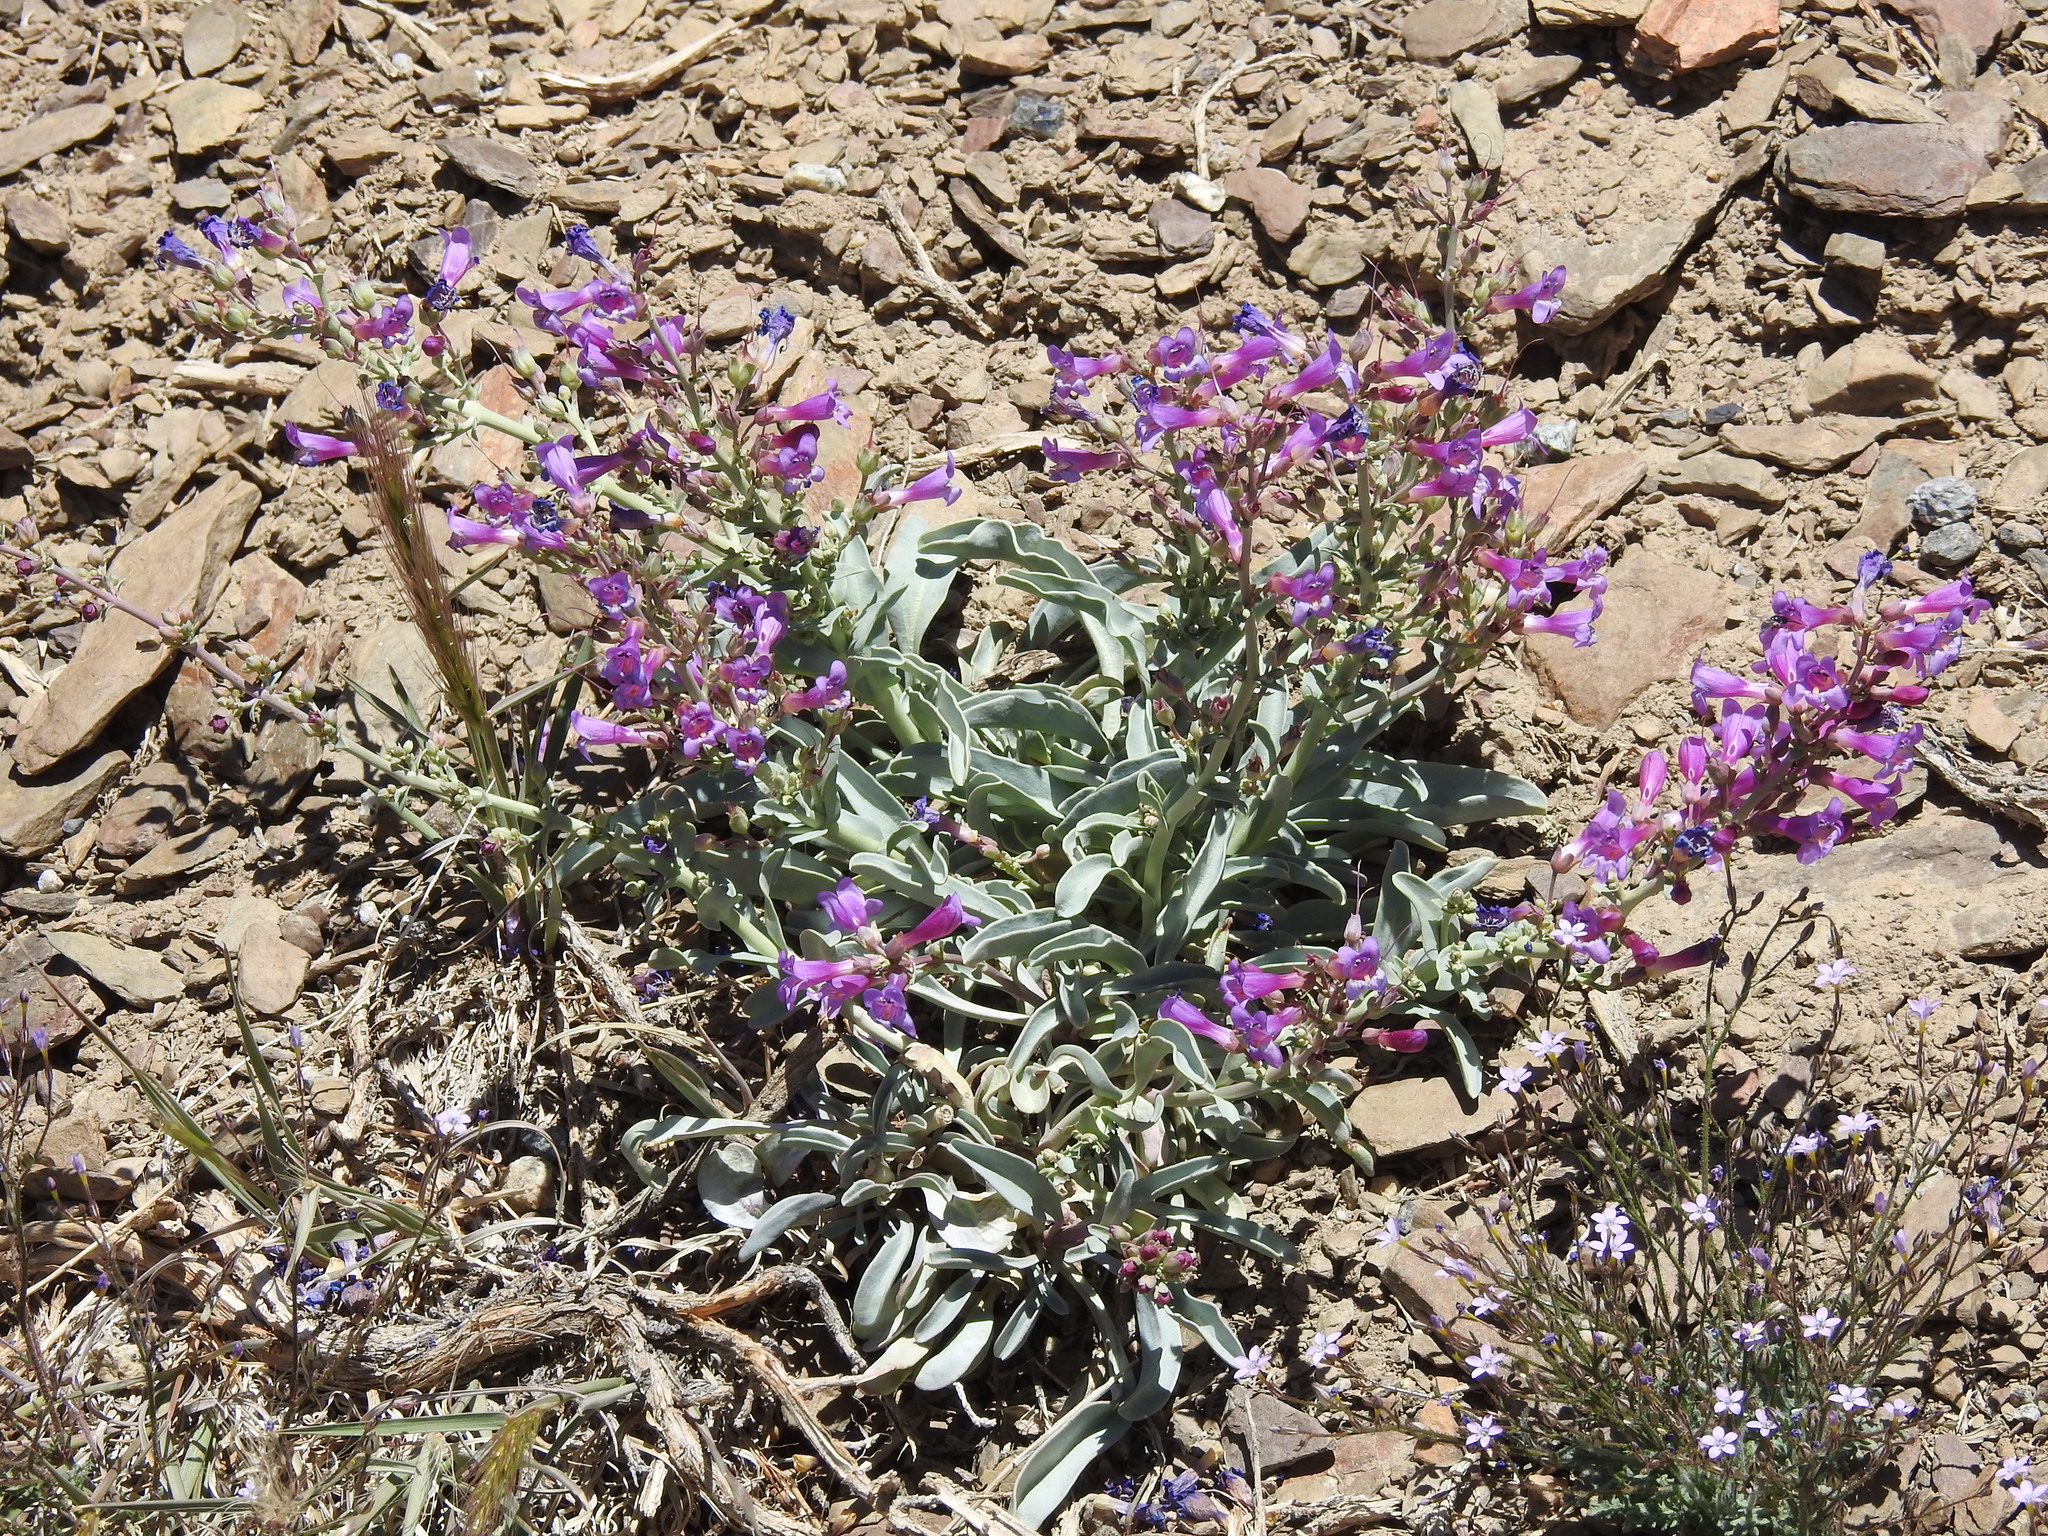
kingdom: Plantae
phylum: Tracheophyta
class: Magnoliopsida
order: Lamiales
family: Plantaginaceae
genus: Penstemon
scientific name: Penstemon patens
